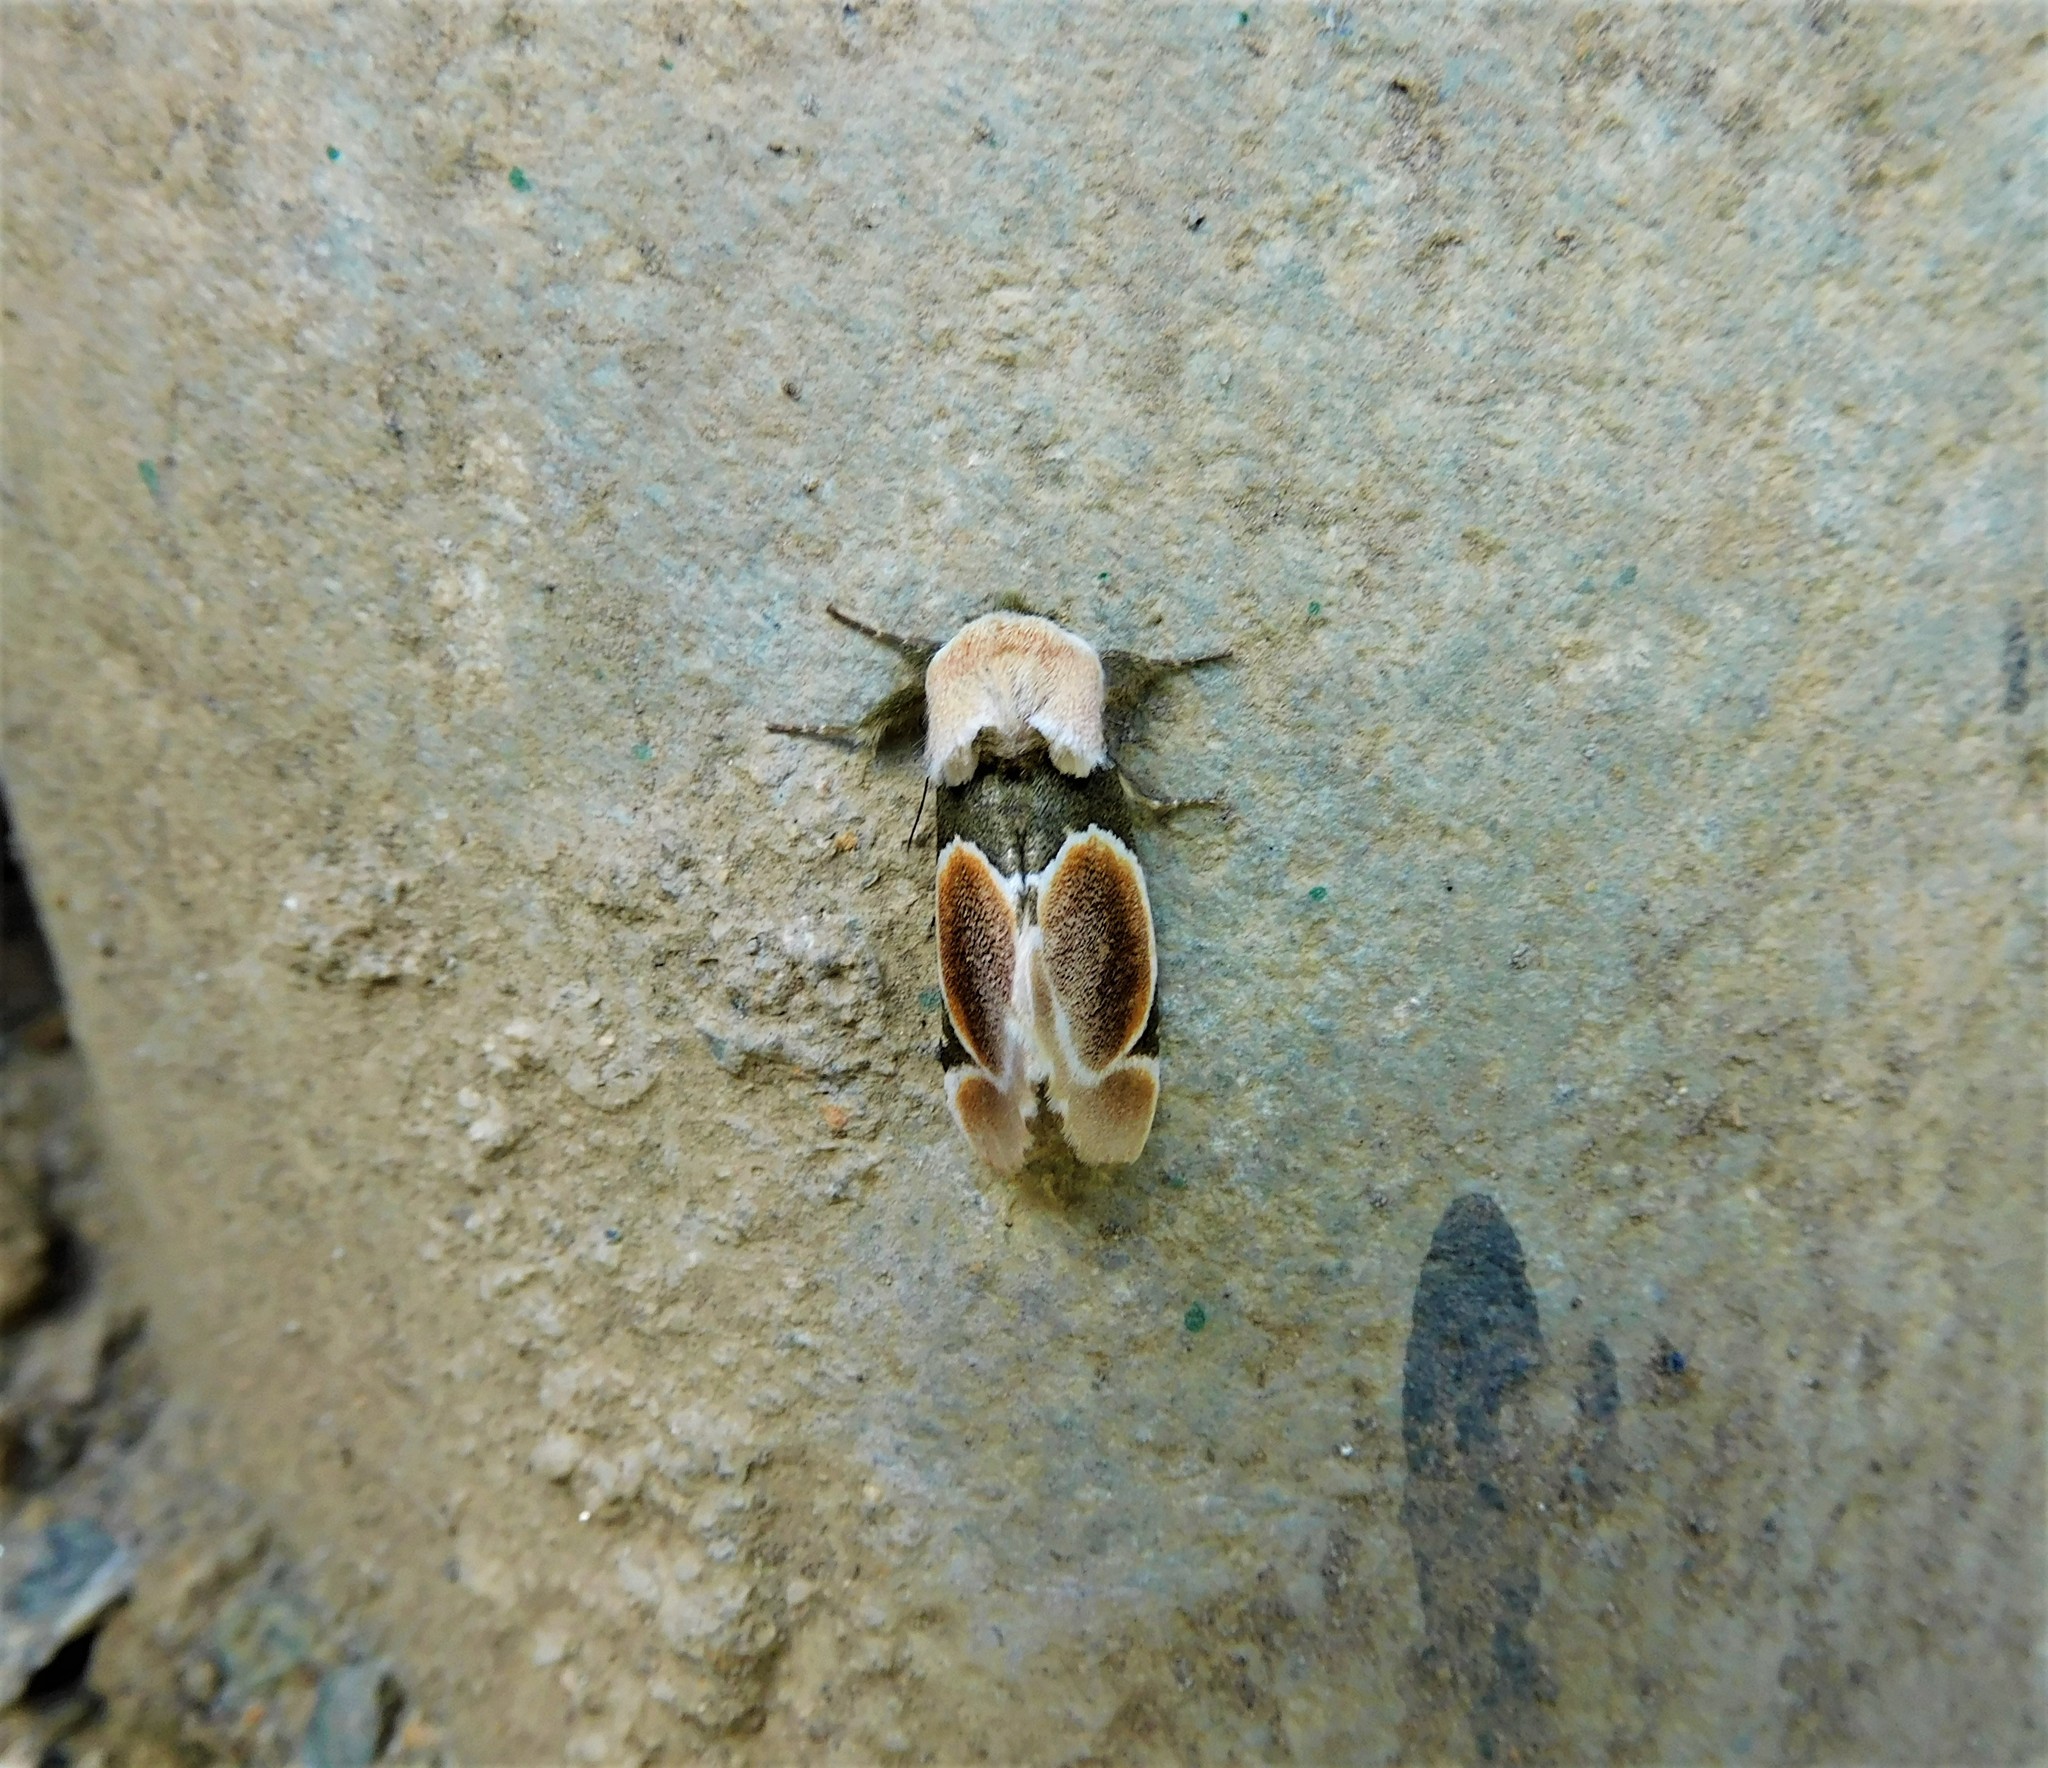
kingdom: Animalia
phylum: Arthropoda
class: Insecta
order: Lepidoptera
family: Notodontidae
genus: Bellonina
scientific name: Bellonina
